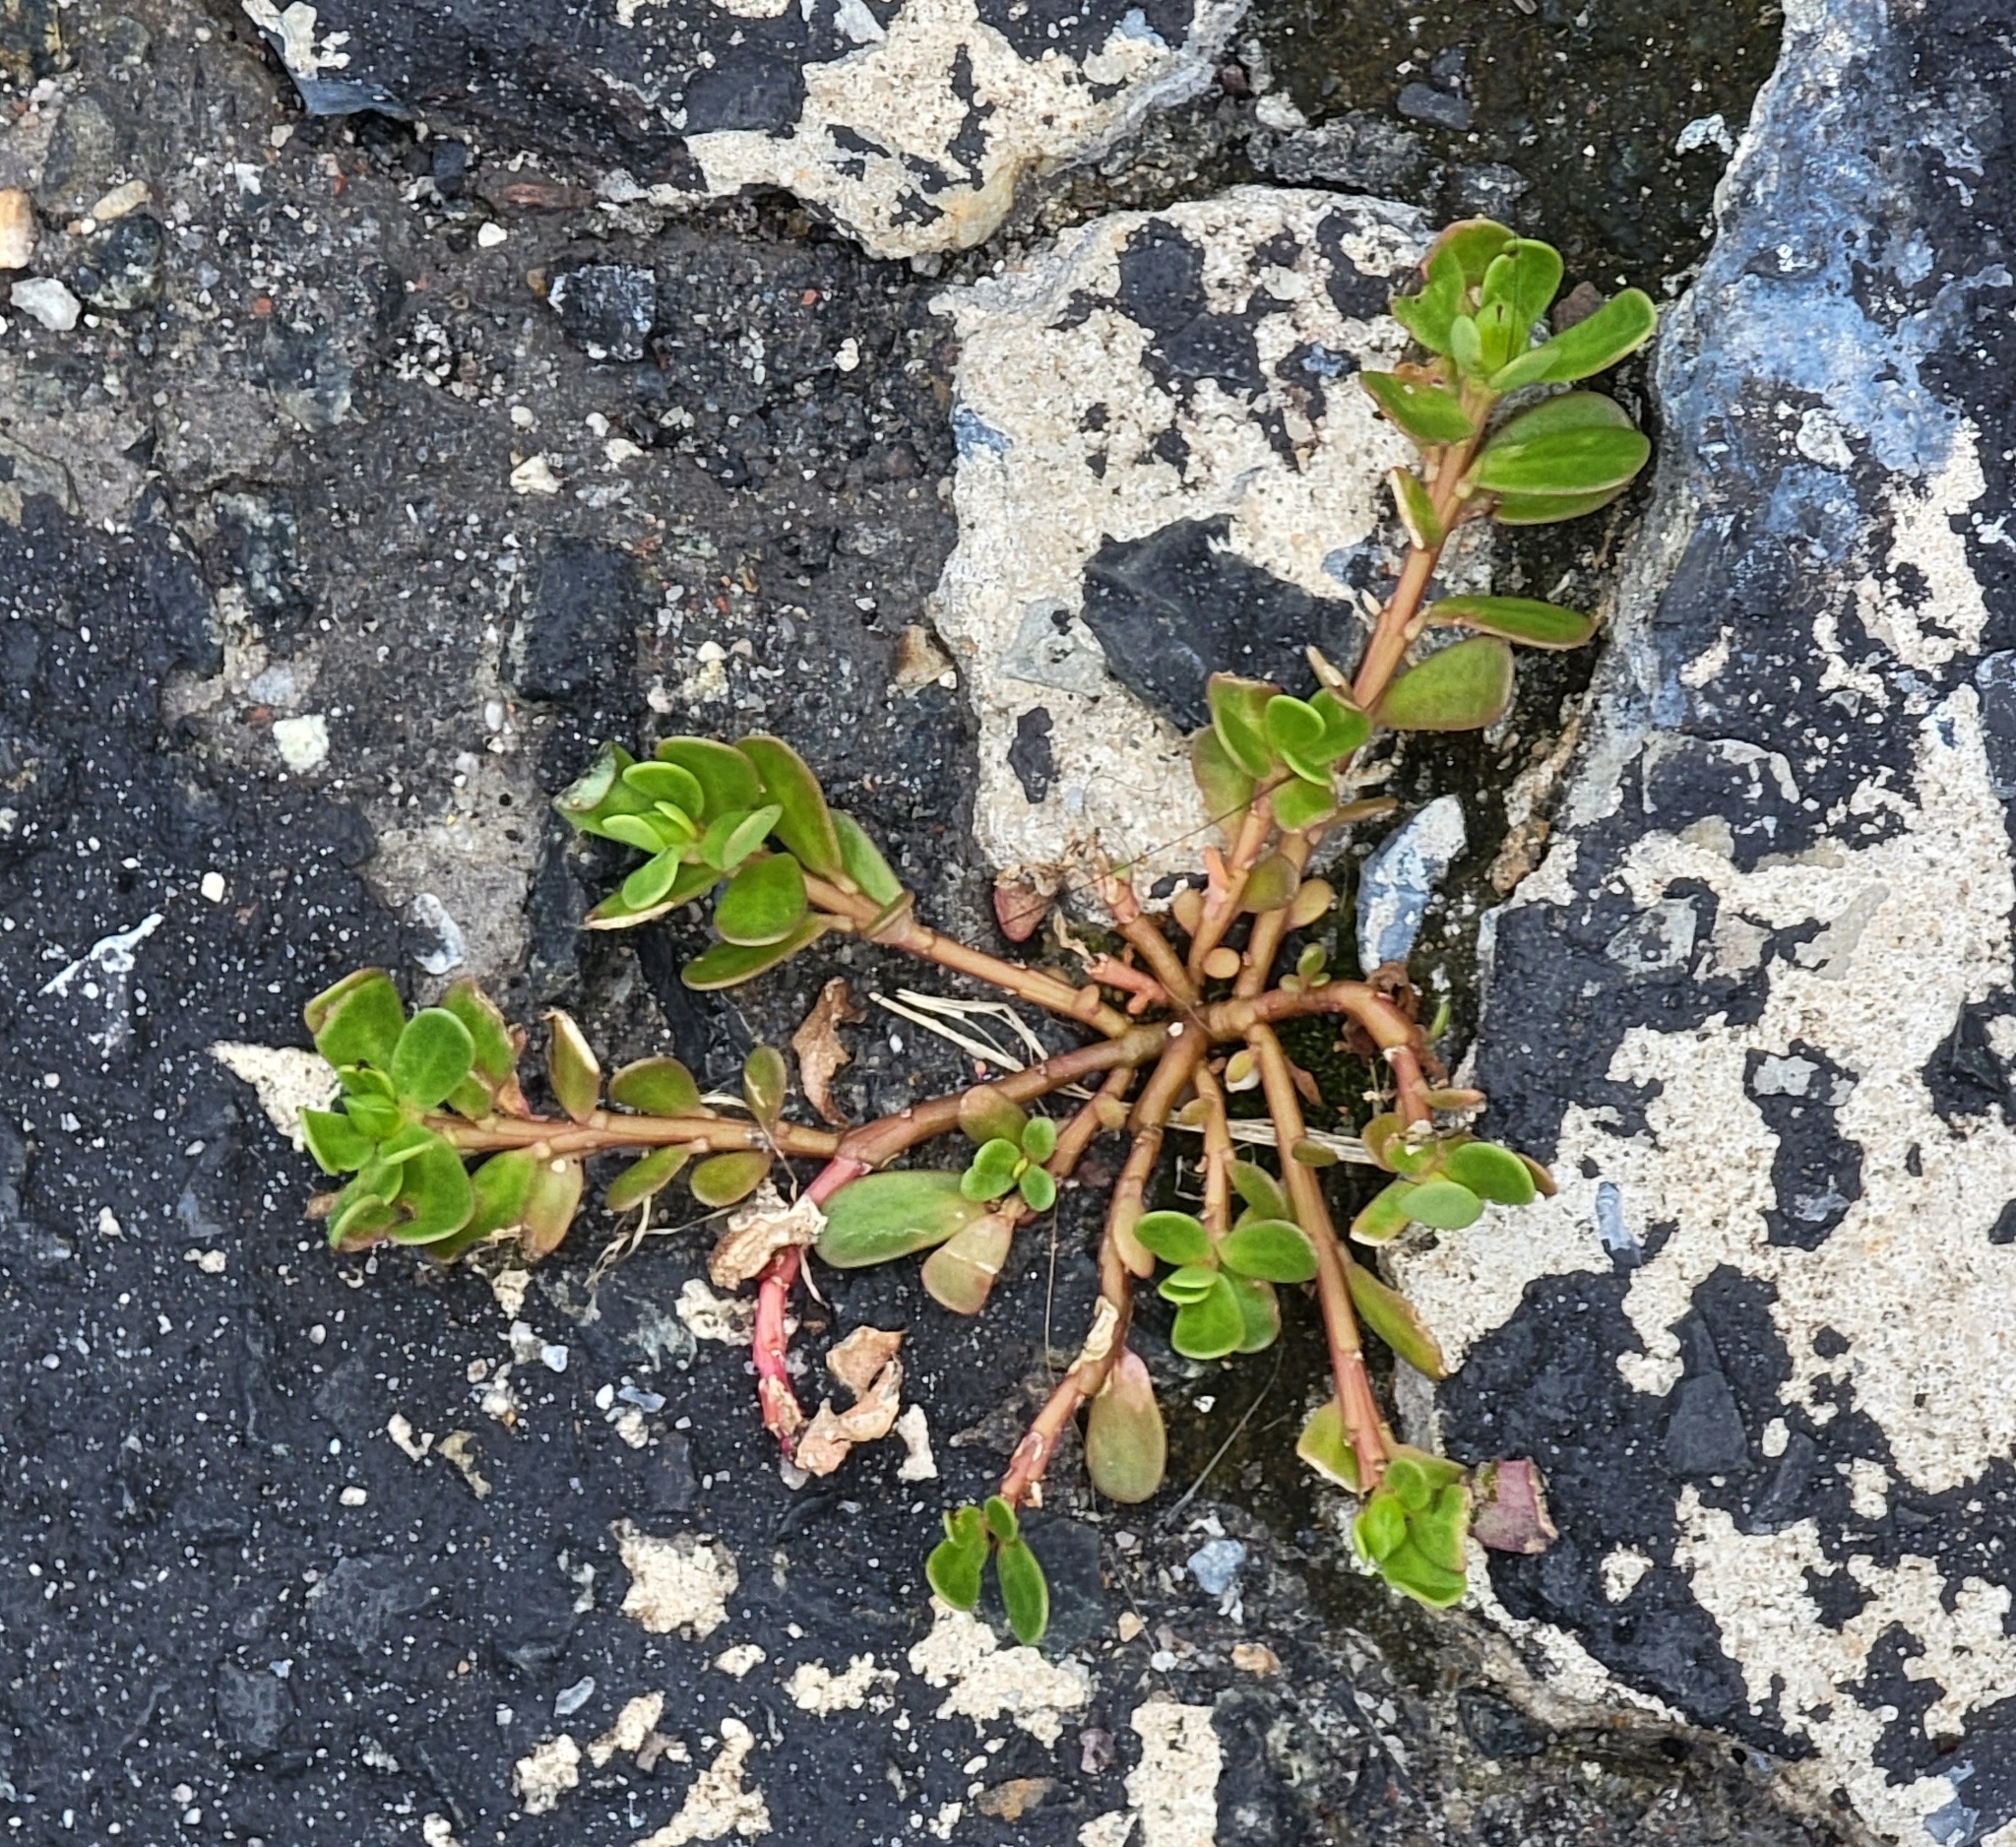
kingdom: Plantae
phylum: Tracheophyta
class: Magnoliopsida
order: Caryophyllales
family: Portulacaceae
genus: Portulaca
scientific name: Portulaca oleracea
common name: Common purslane
